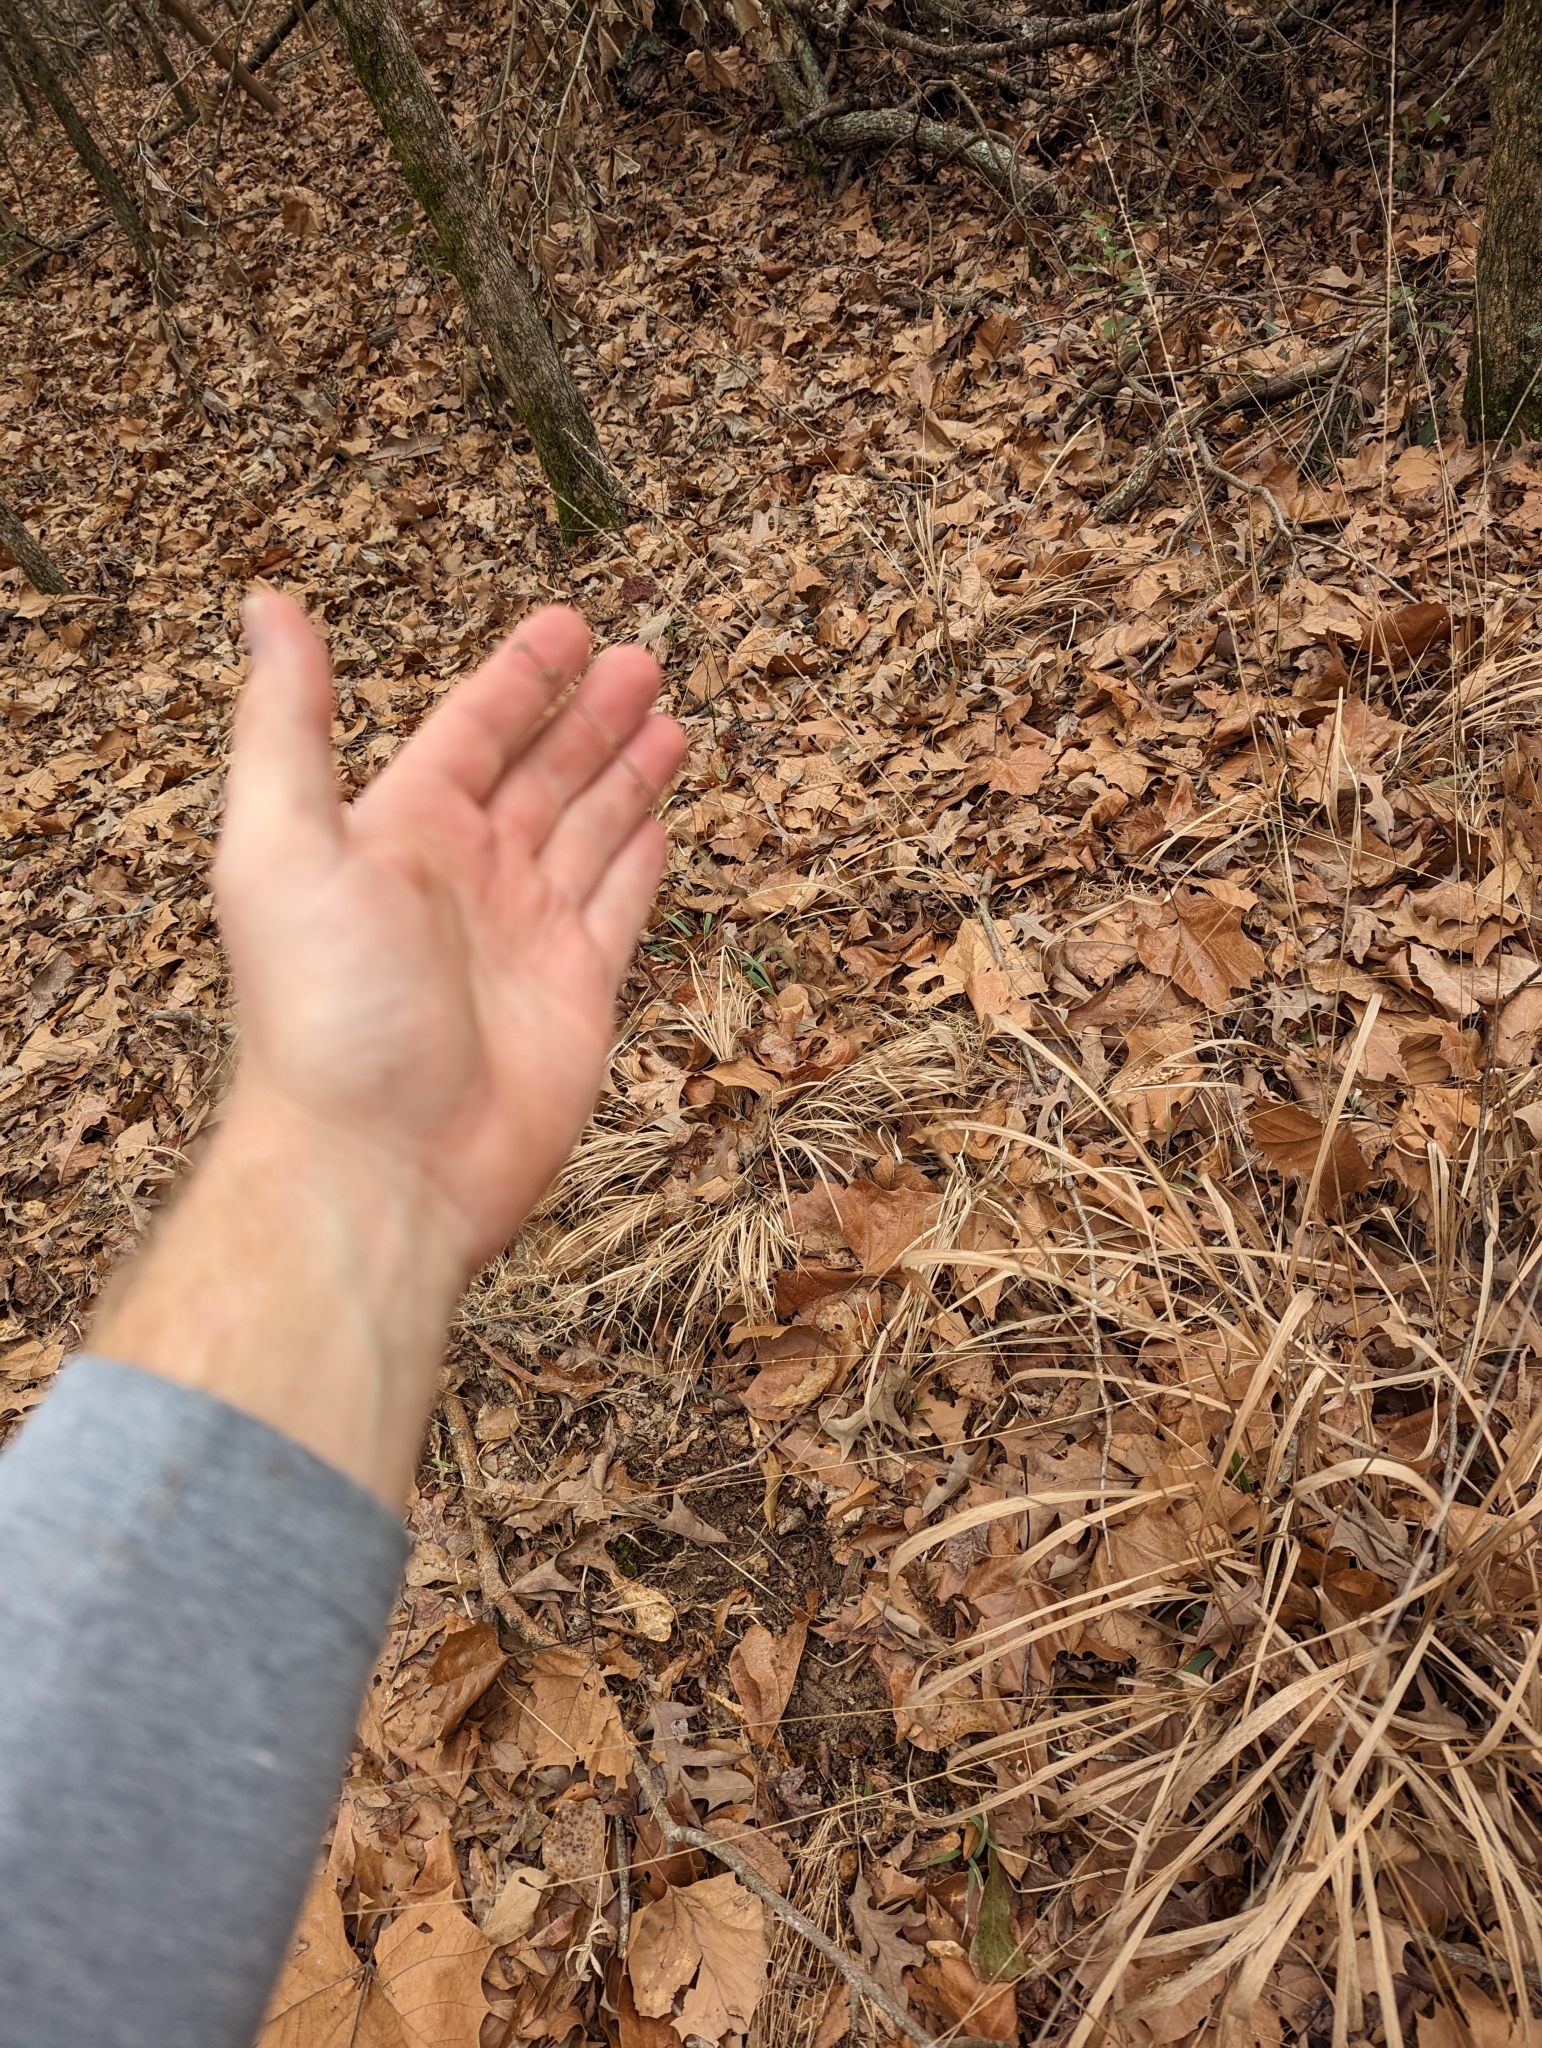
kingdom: Plantae
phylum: Tracheophyta
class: Liliopsida
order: Poales
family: Poaceae
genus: Chasmanthium
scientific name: Chasmanthium laxum
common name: Slender chasmanthium
